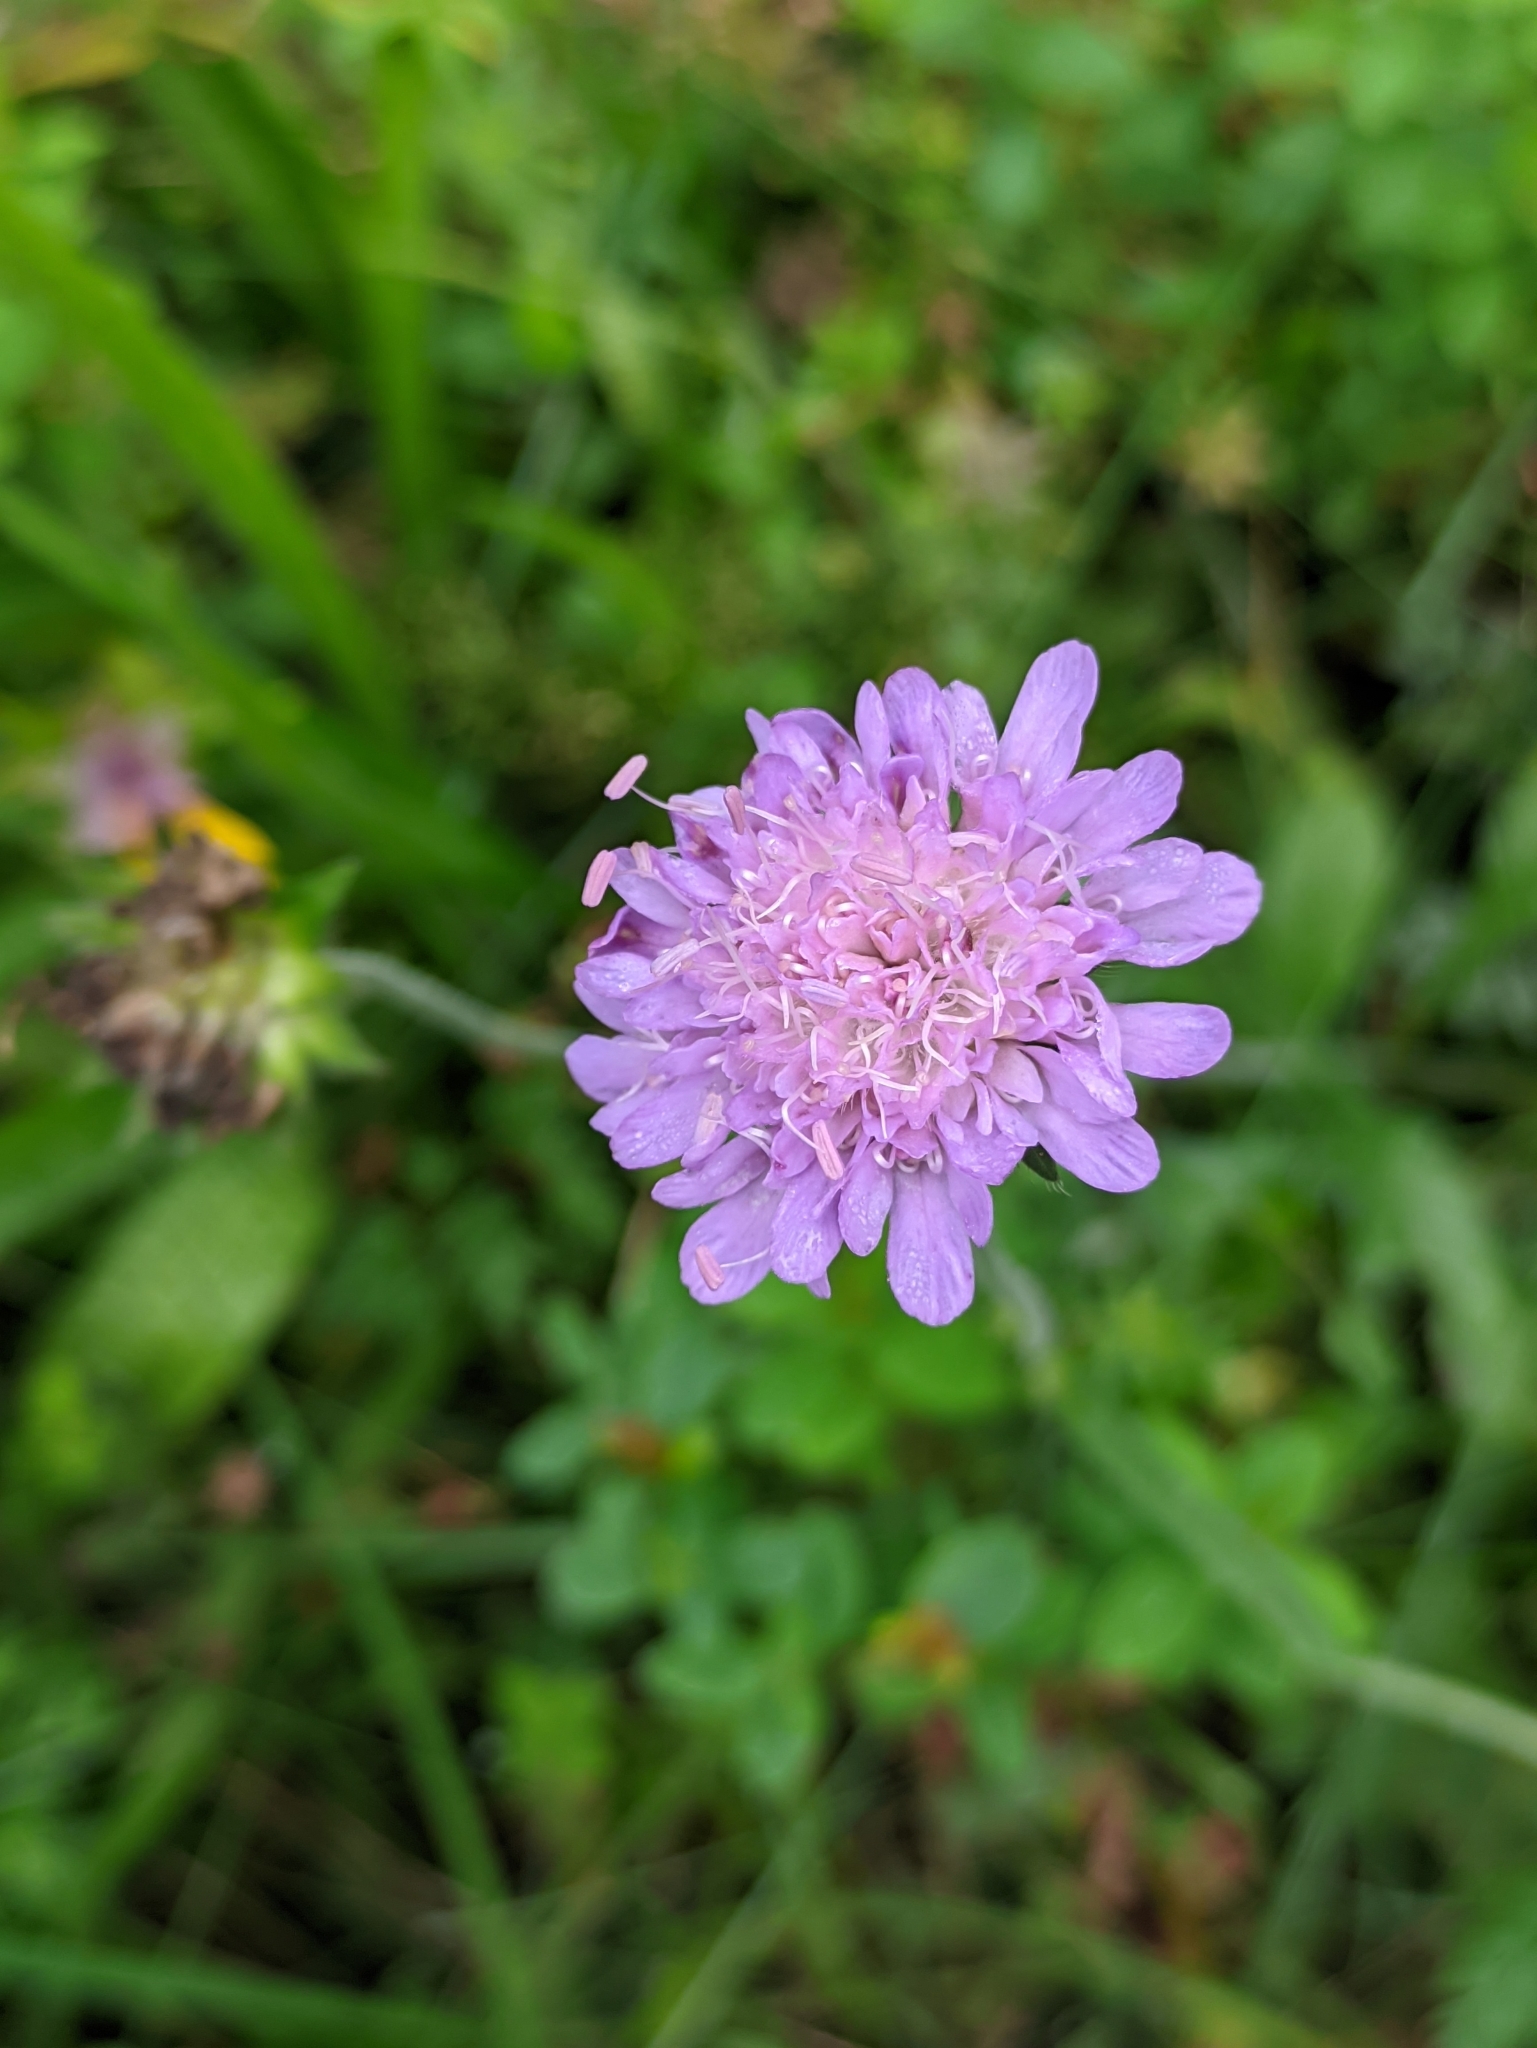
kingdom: Plantae
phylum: Tracheophyta
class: Magnoliopsida
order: Dipsacales
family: Caprifoliaceae
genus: Knautia
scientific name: Knautia arvensis
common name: Field scabiosa
